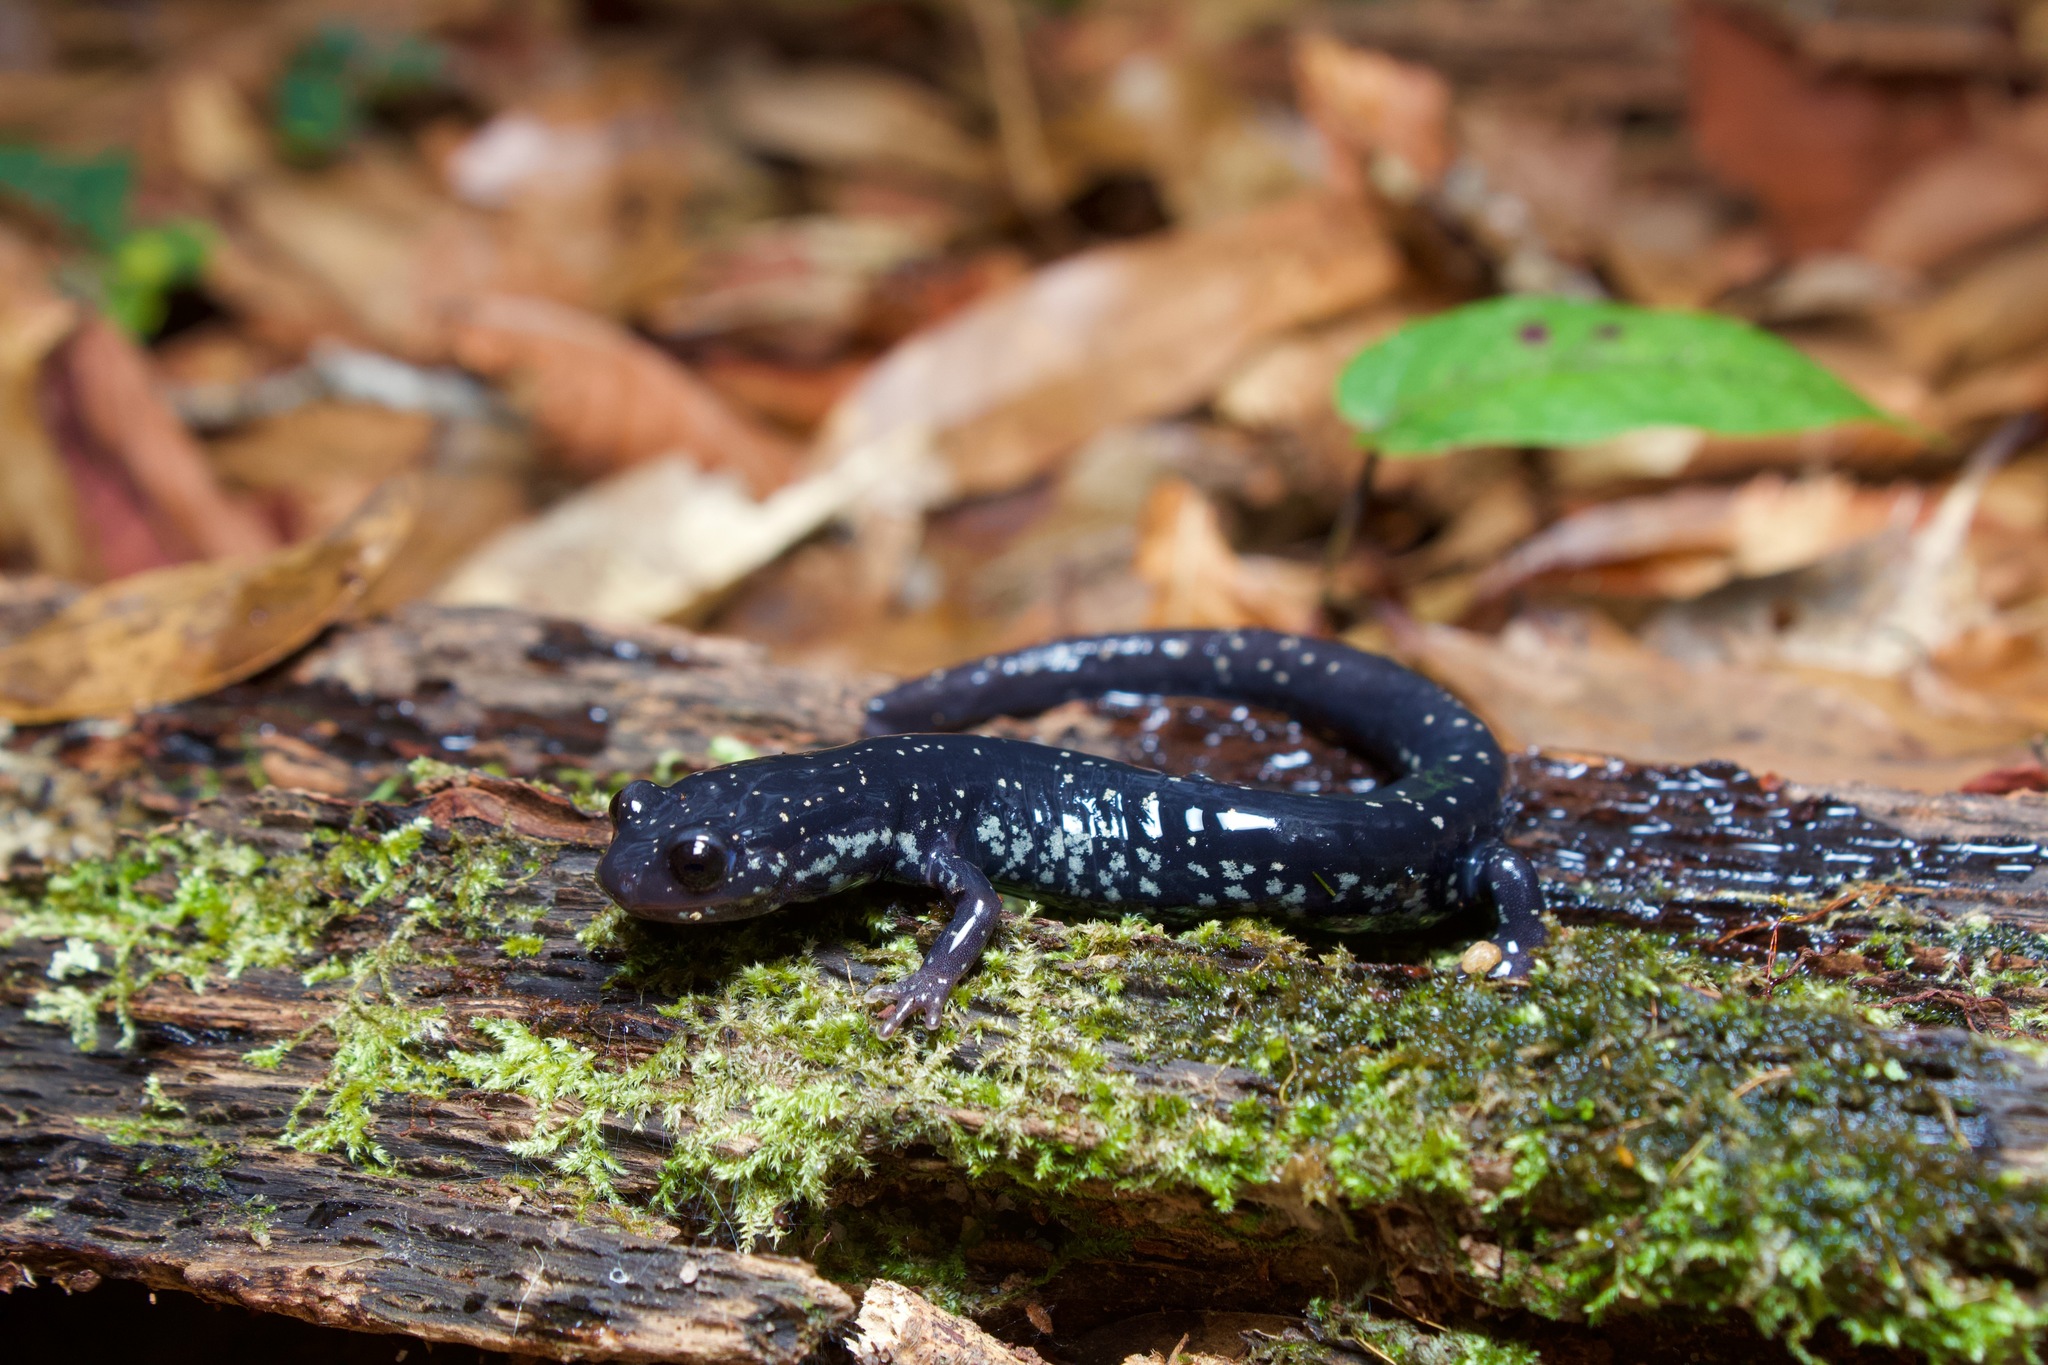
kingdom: Animalia
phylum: Chordata
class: Amphibia
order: Caudata
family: Plethodontidae
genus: Plethodon
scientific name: Plethodon grobmani
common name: Southeastern slimy salamander
